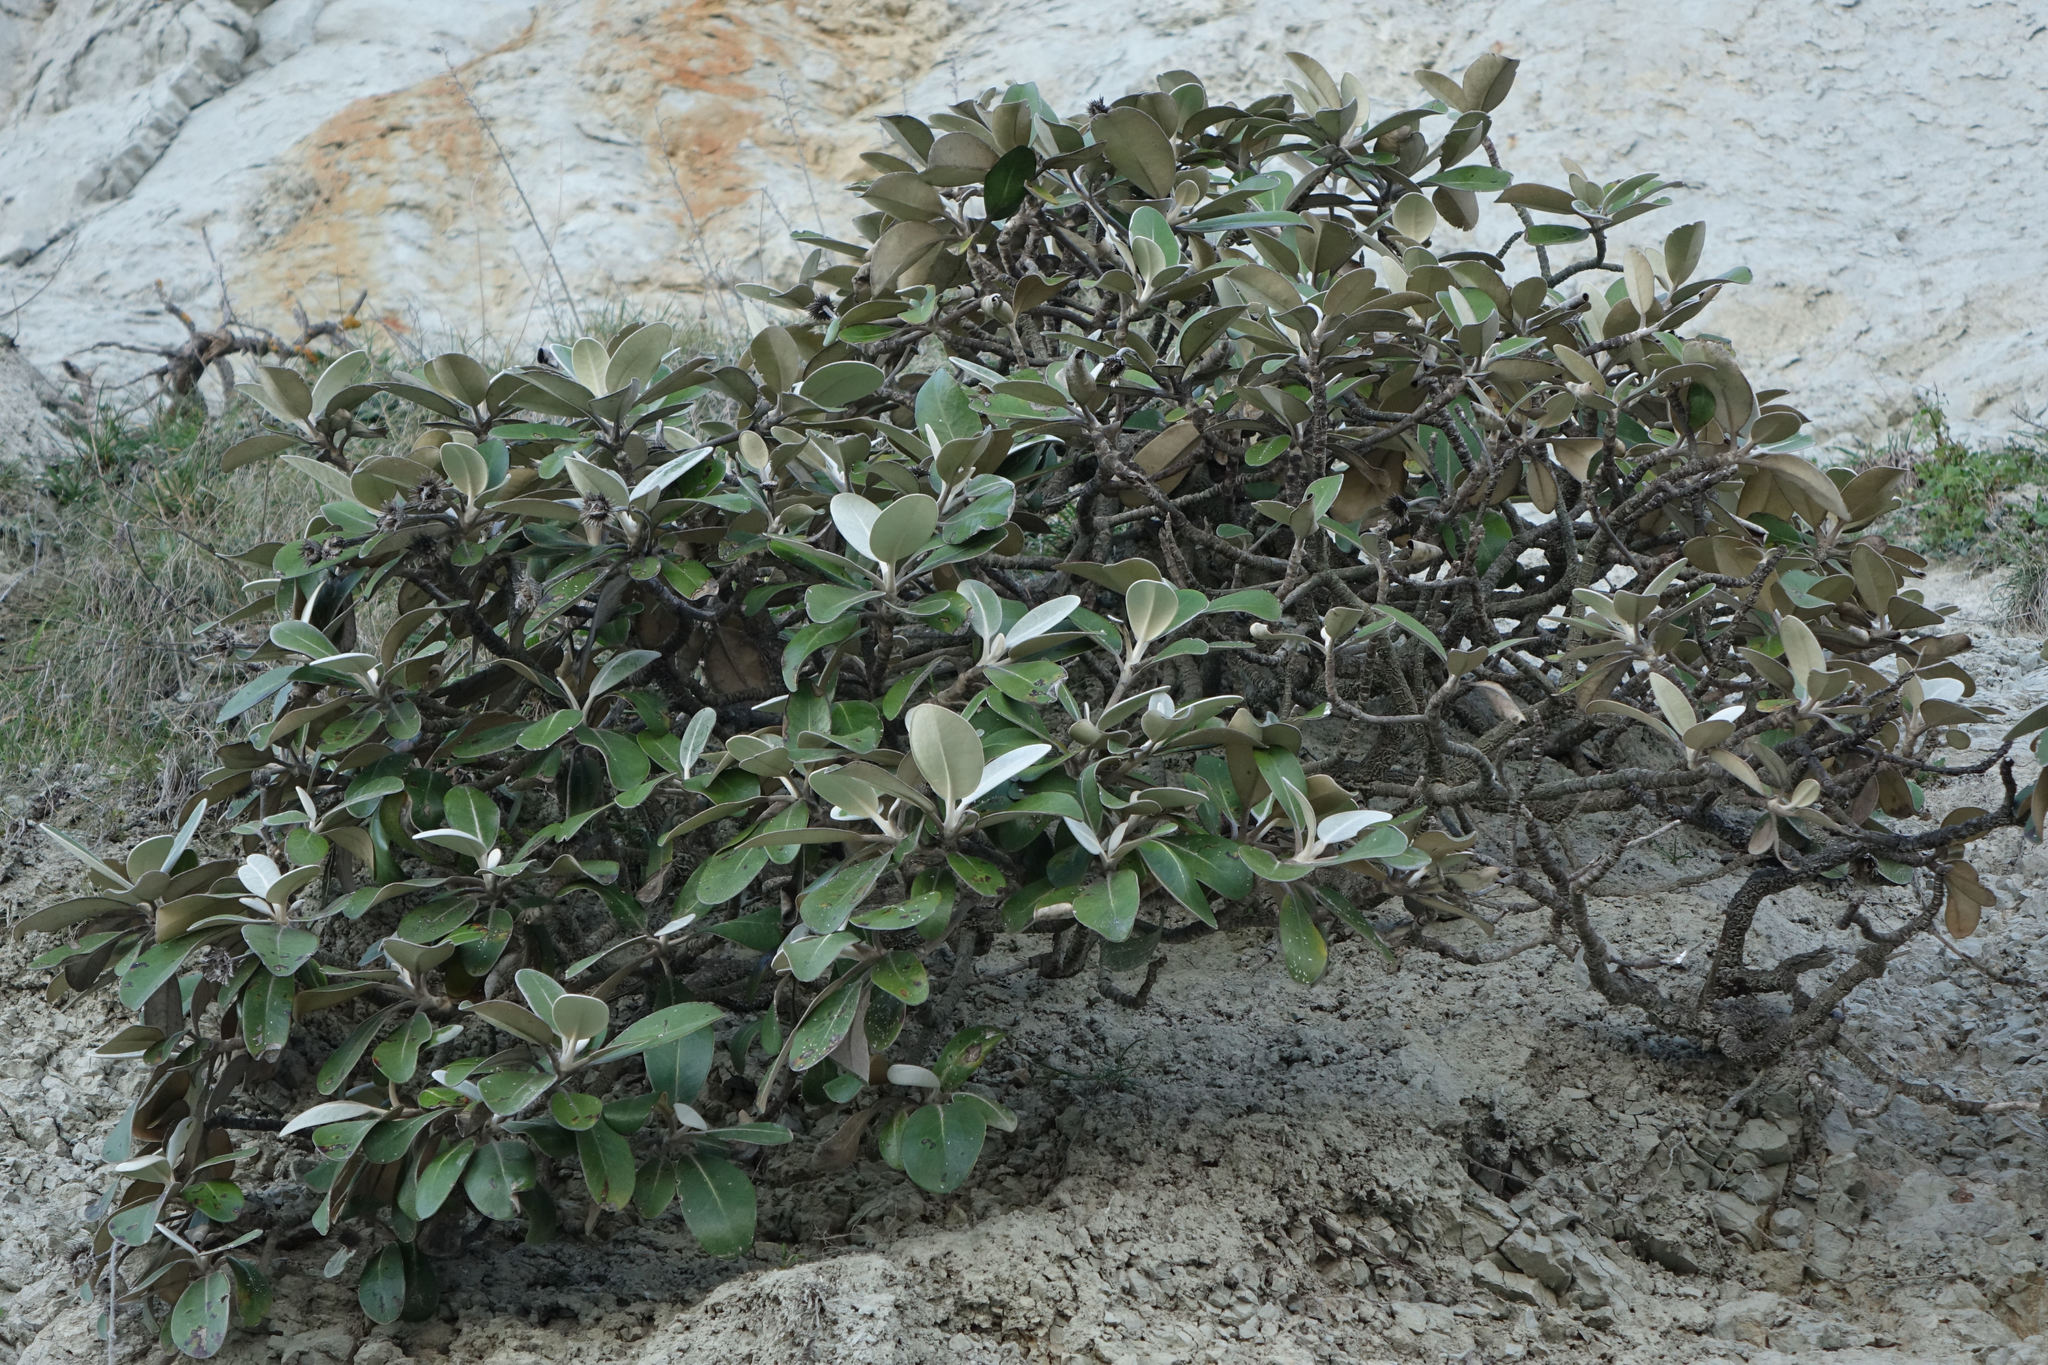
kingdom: Plantae
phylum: Tracheophyta
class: Magnoliopsida
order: Asterales
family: Asteraceae
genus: Pachystegia
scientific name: Pachystegia insignis
